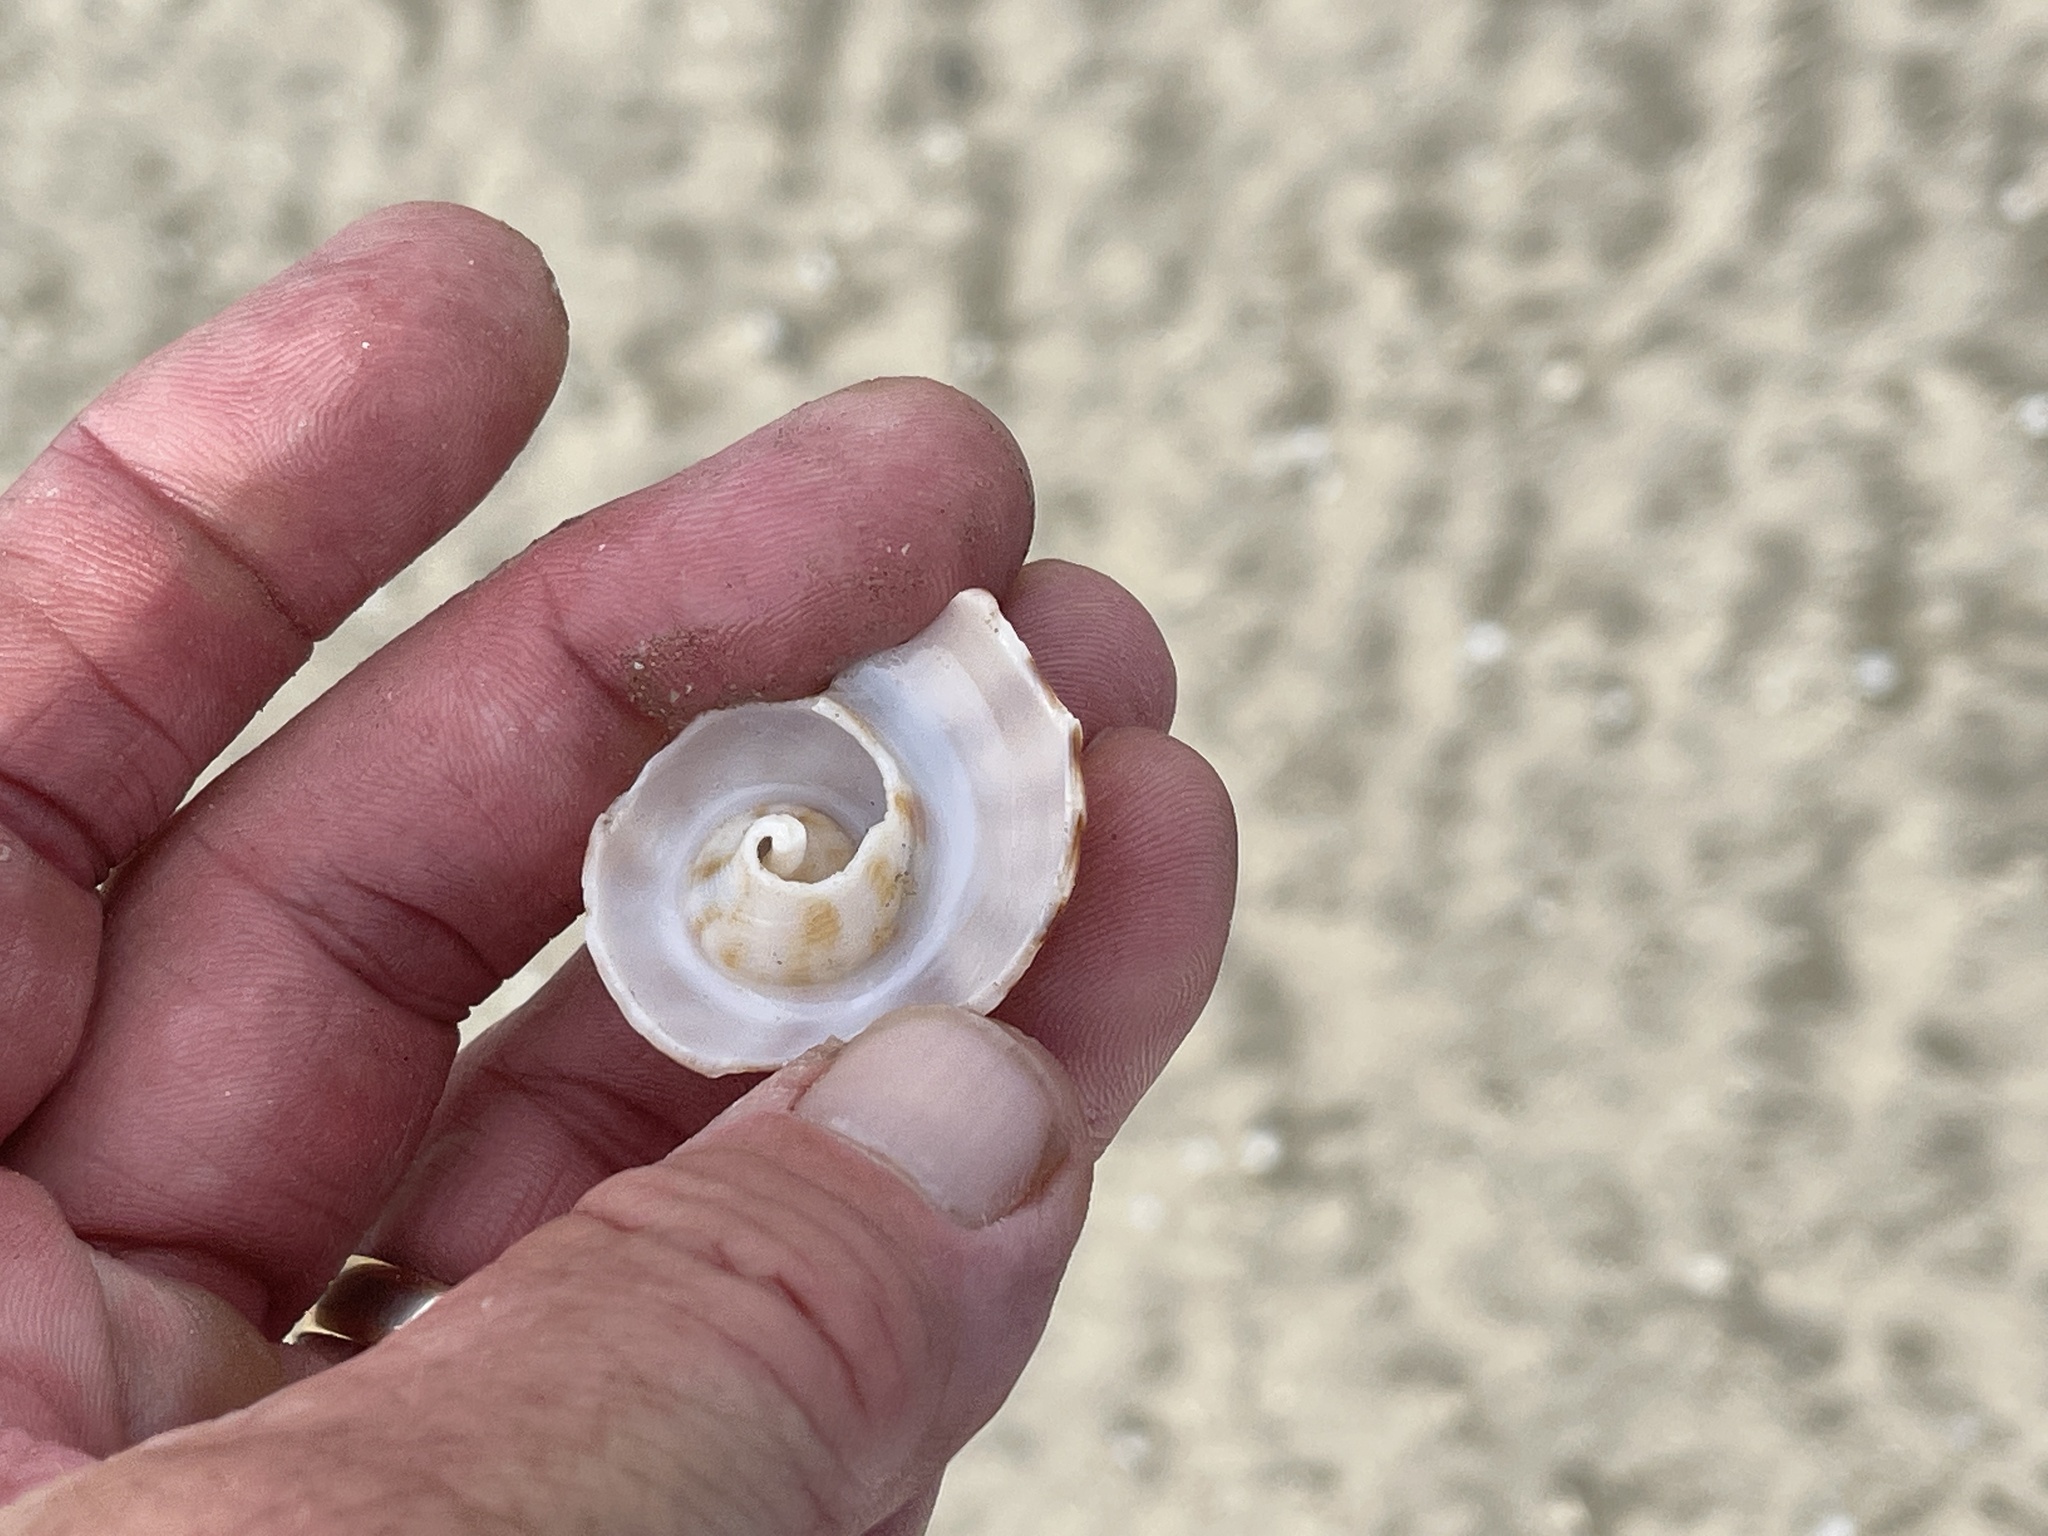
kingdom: Animalia
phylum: Mollusca
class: Gastropoda
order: Neogastropoda
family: Busyconidae
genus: Fulguropsis
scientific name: Fulguropsis spirata
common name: Pear whelk
